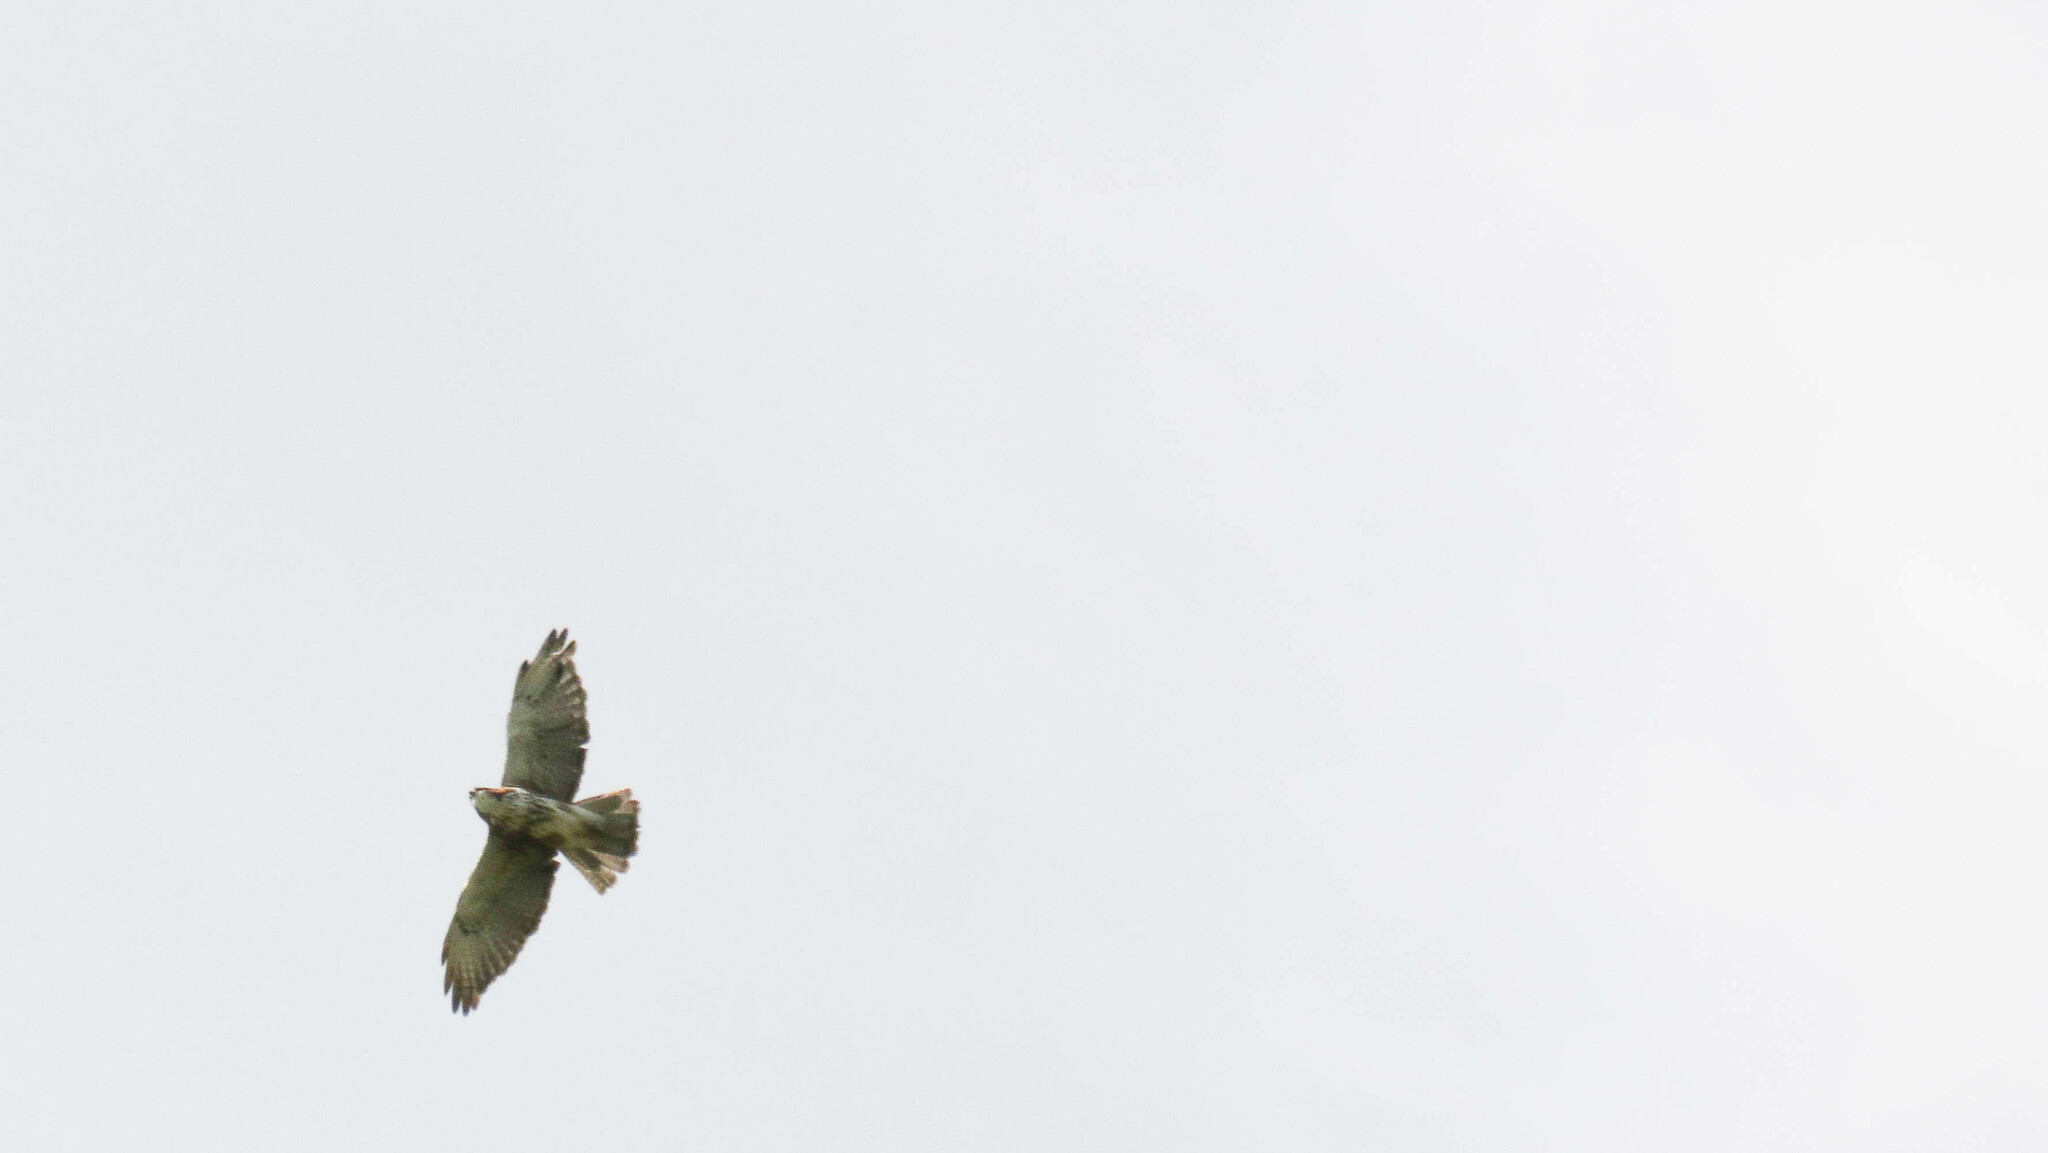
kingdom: Animalia
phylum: Chordata
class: Aves
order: Accipitriformes
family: Accipitridae
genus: Buteo
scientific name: Buteo albigula
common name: White-throated hawk
